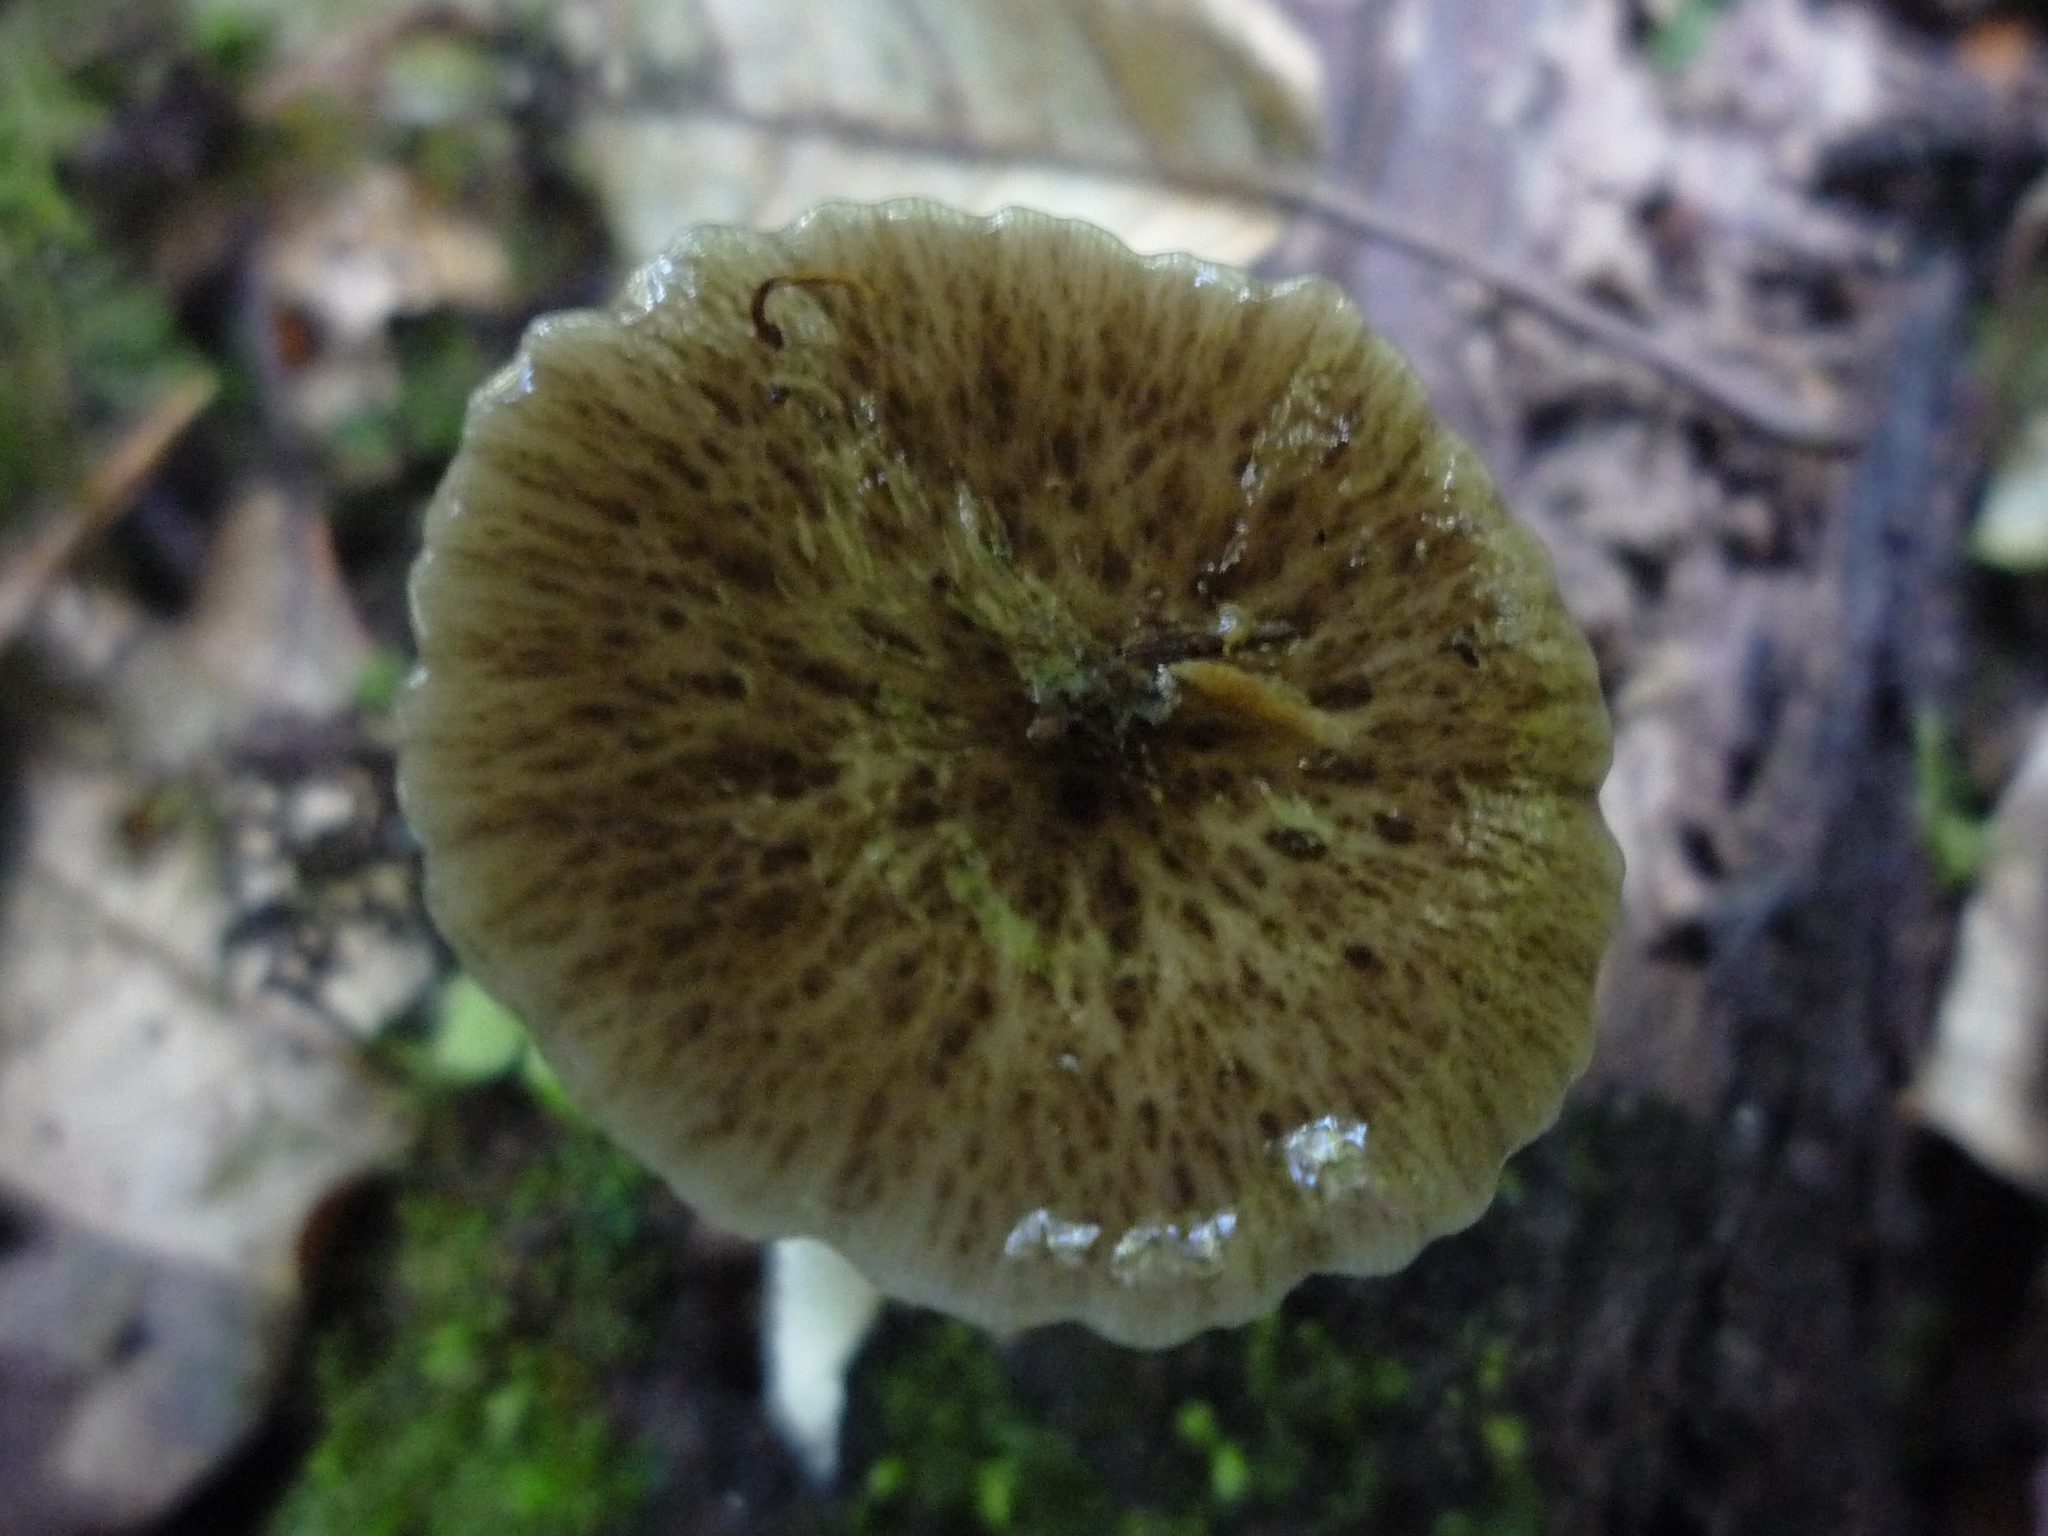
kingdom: Fungi
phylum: Basidiomycota
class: Agaricomycetes
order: Agaricales
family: Bolbitiaceae
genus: Bolbitius
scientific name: Bolbitius muscicola
